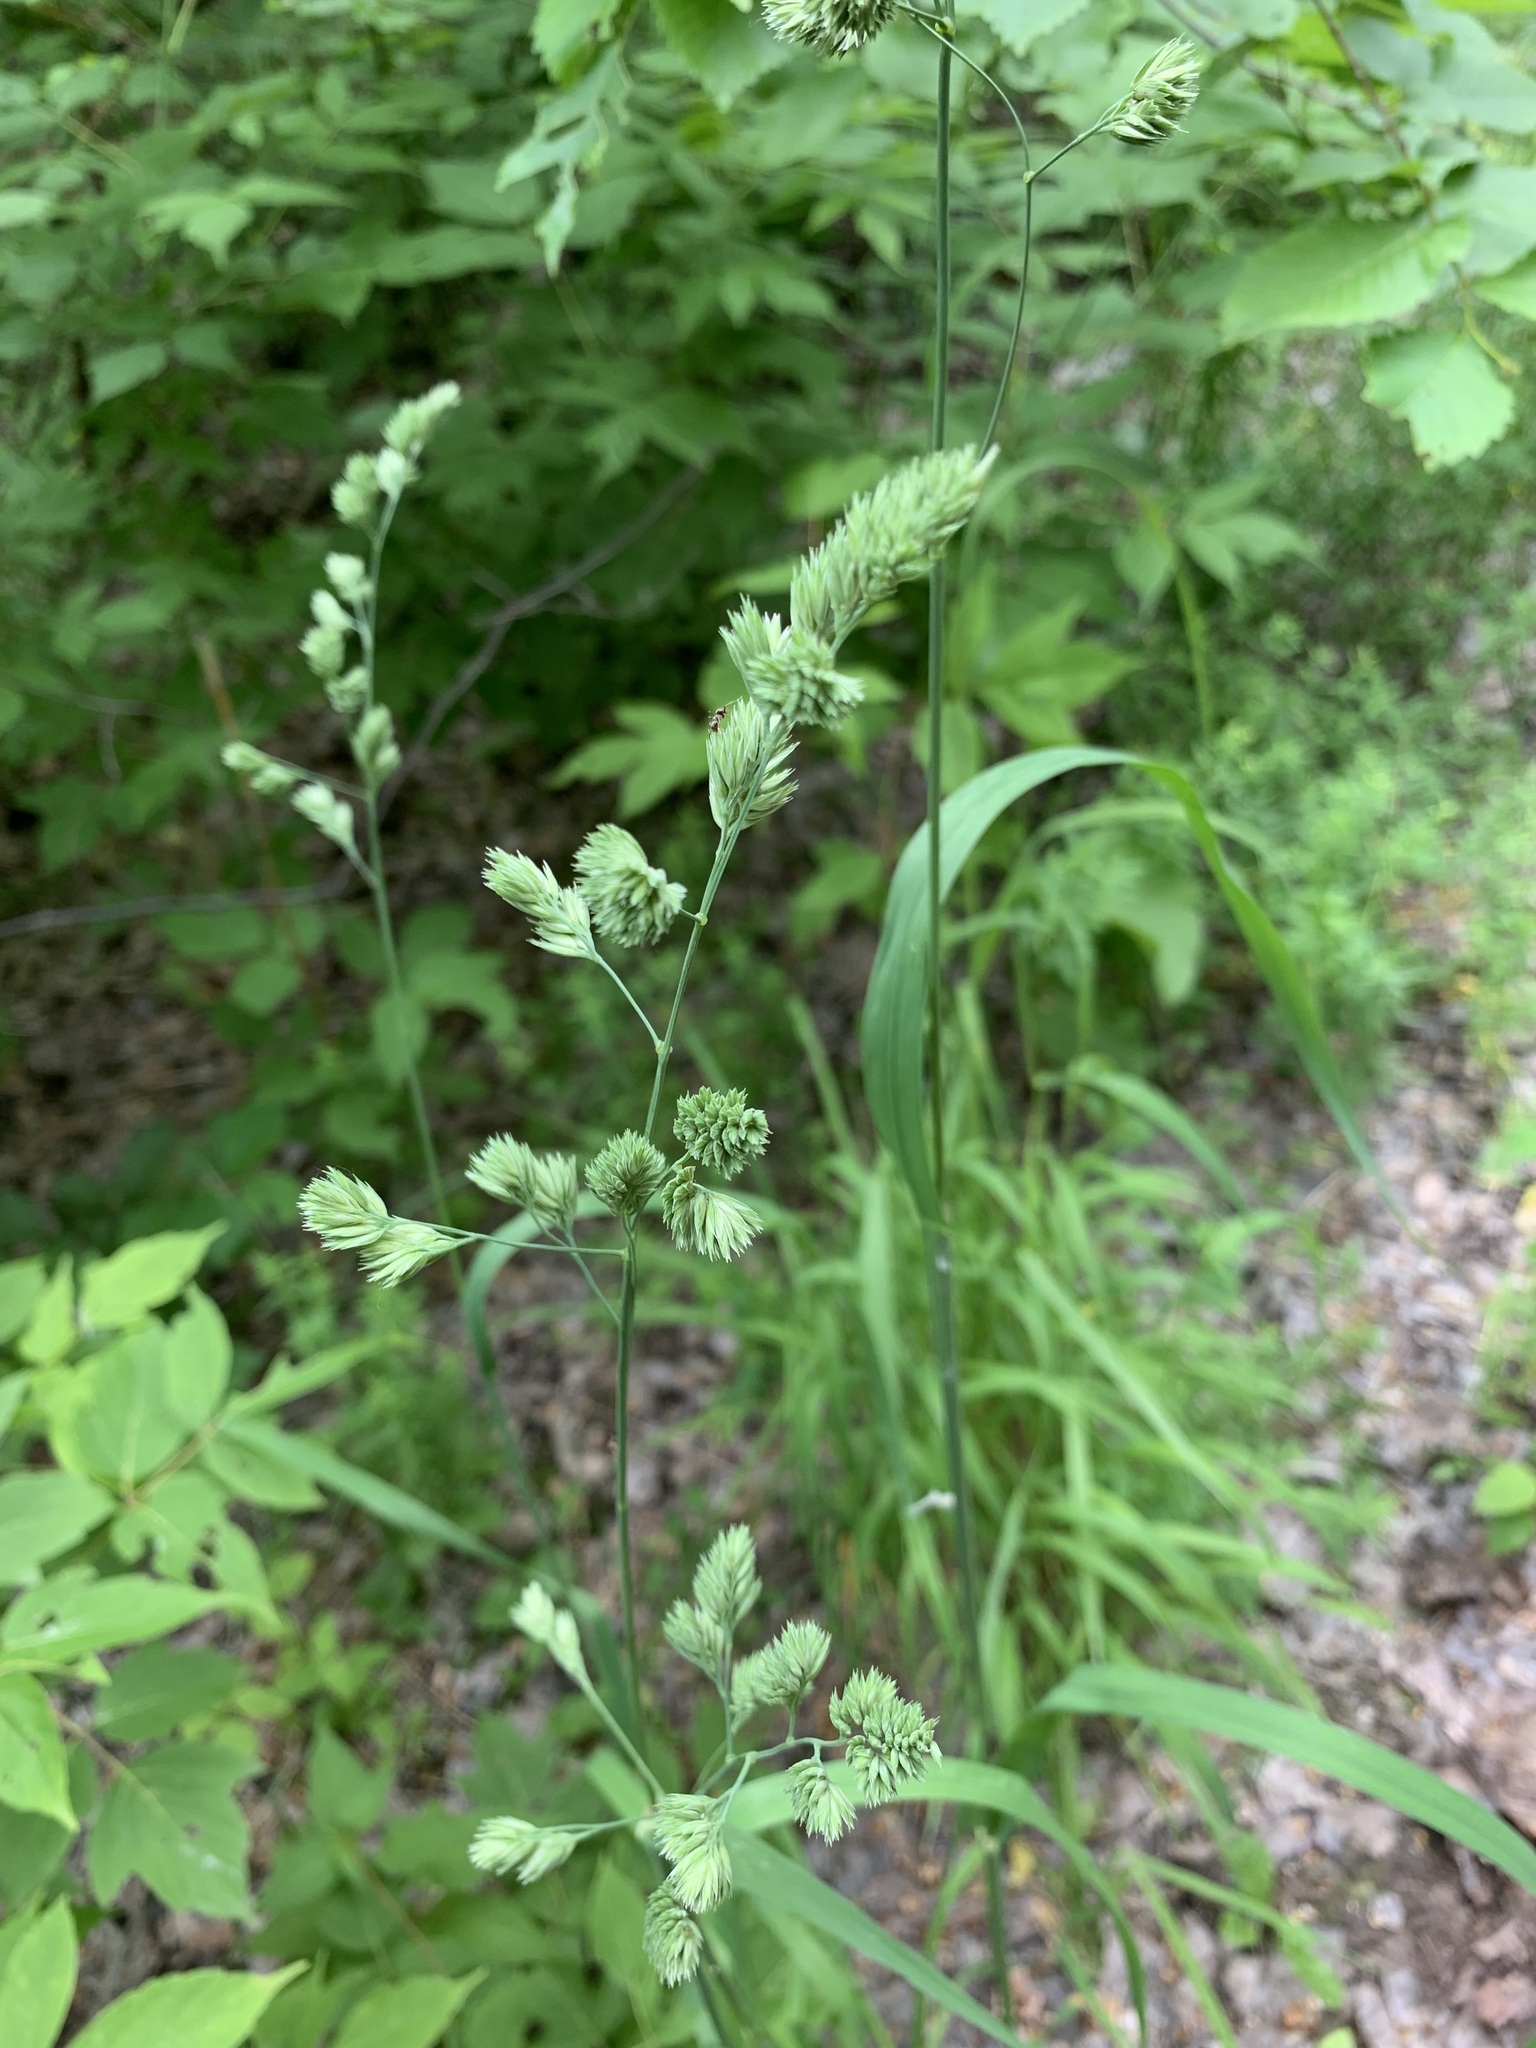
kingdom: Plantae
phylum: Tracheophyta
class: Liliopsida
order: Poales
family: Poaceae
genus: Dactylis
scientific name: Dactylis glomerata
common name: Orchardgrass
